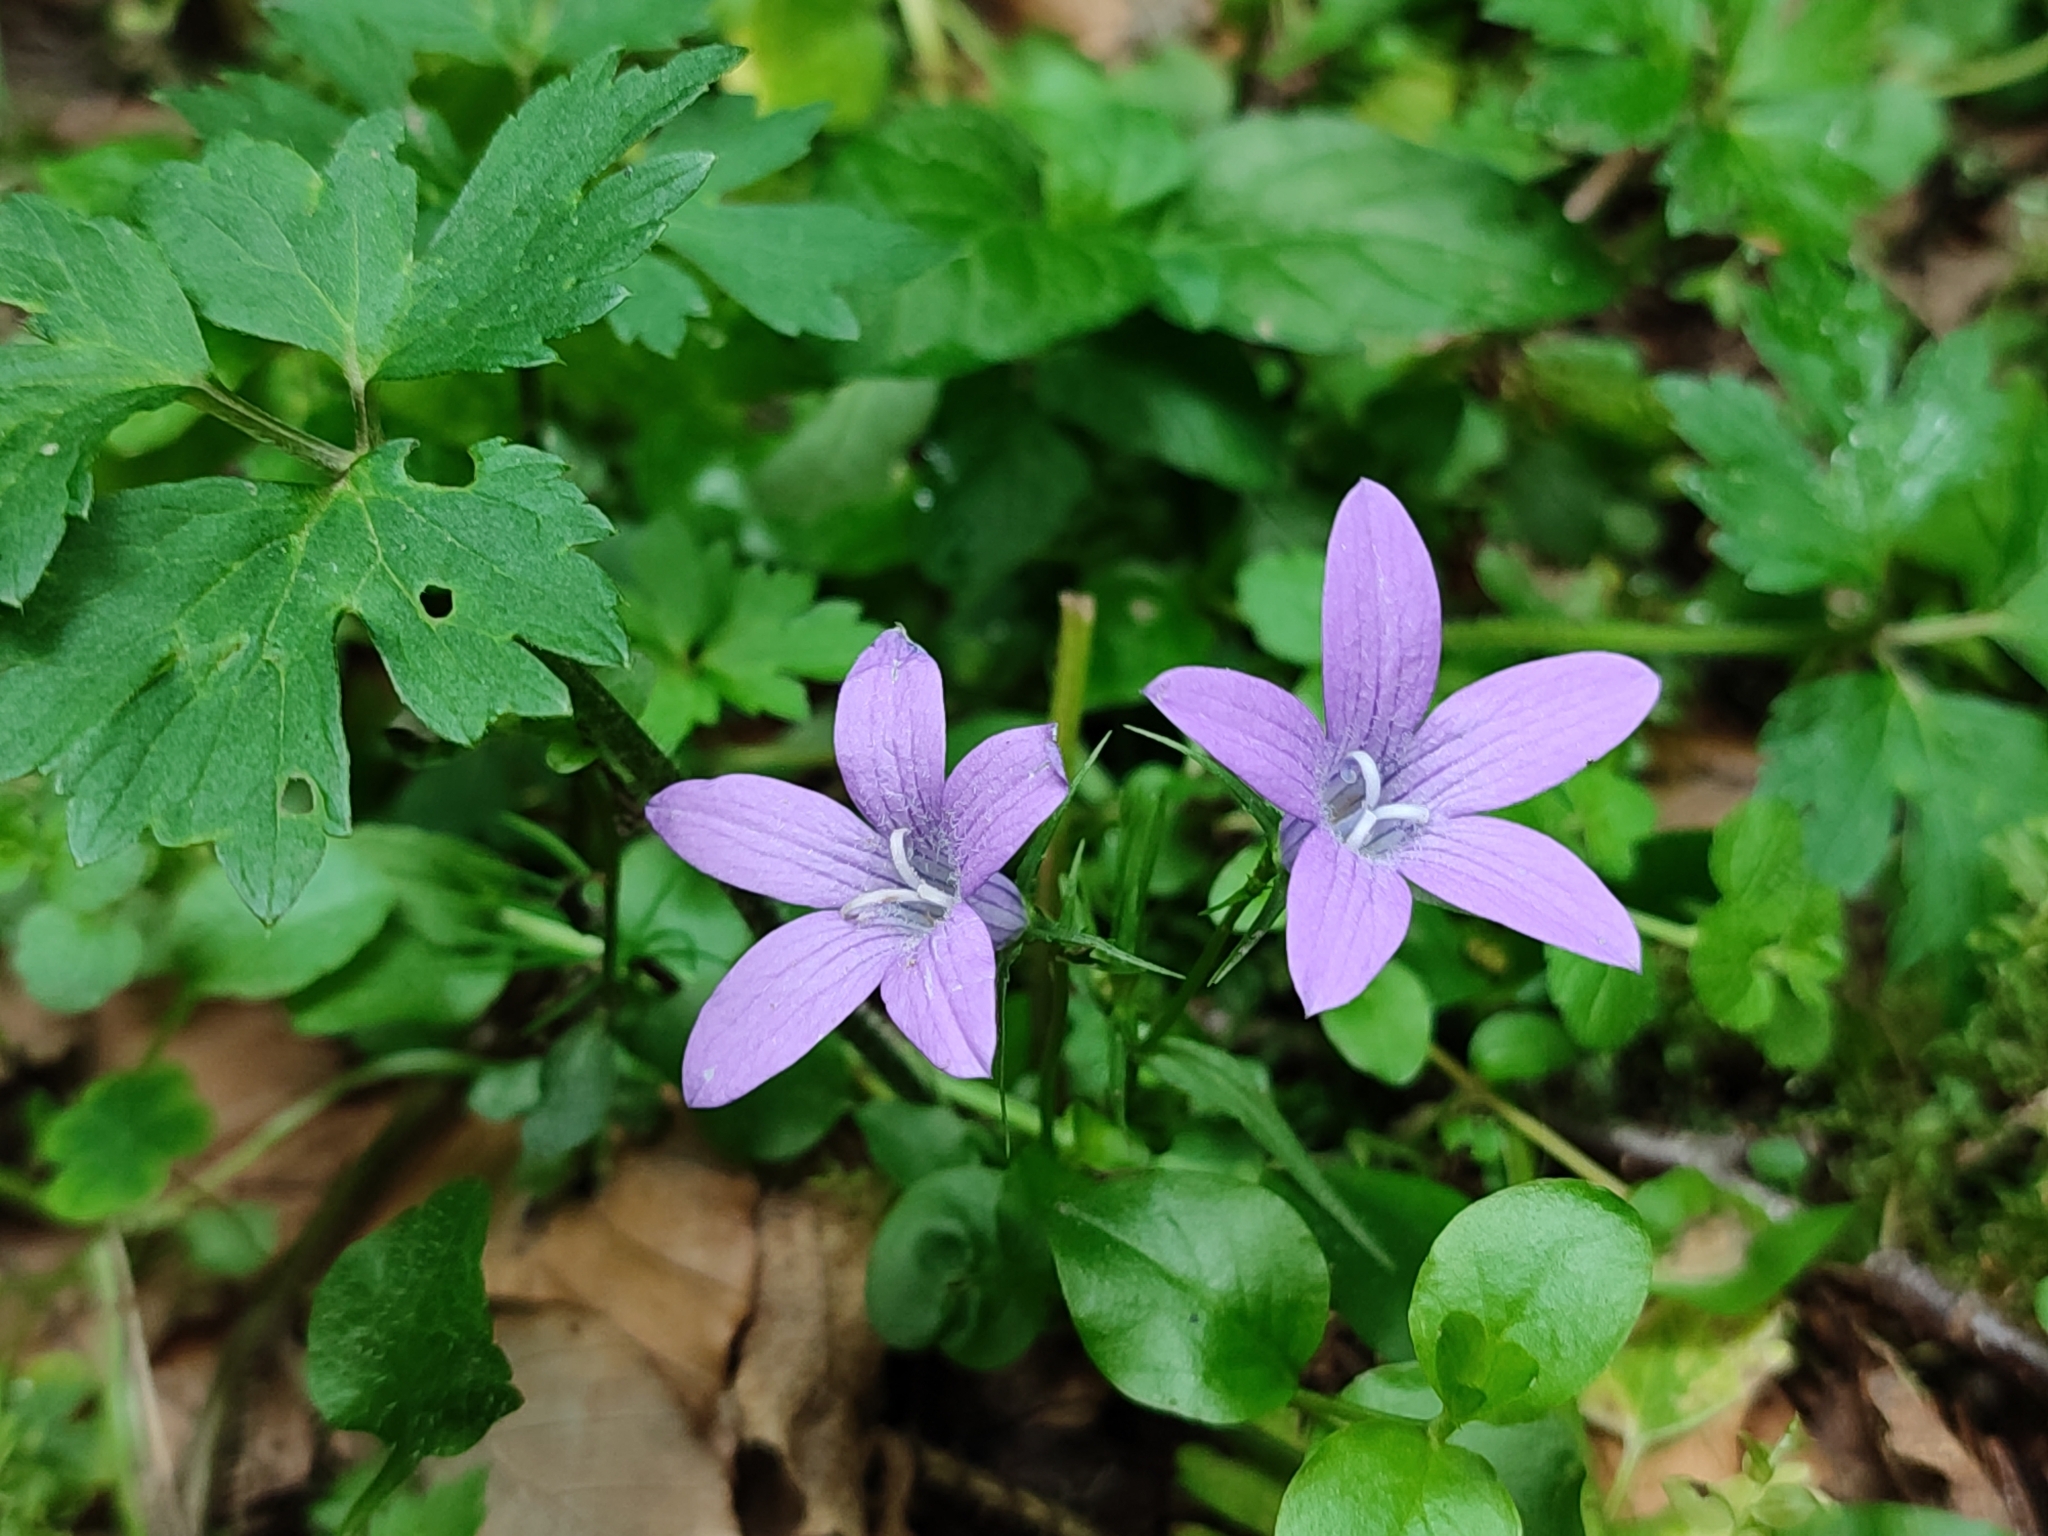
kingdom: Plantae
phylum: Tracheophyta
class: Magnoliopsida
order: Asterales
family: Campanulaceae
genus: Campanula
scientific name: Campanula patula
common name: Spreading bellflower
